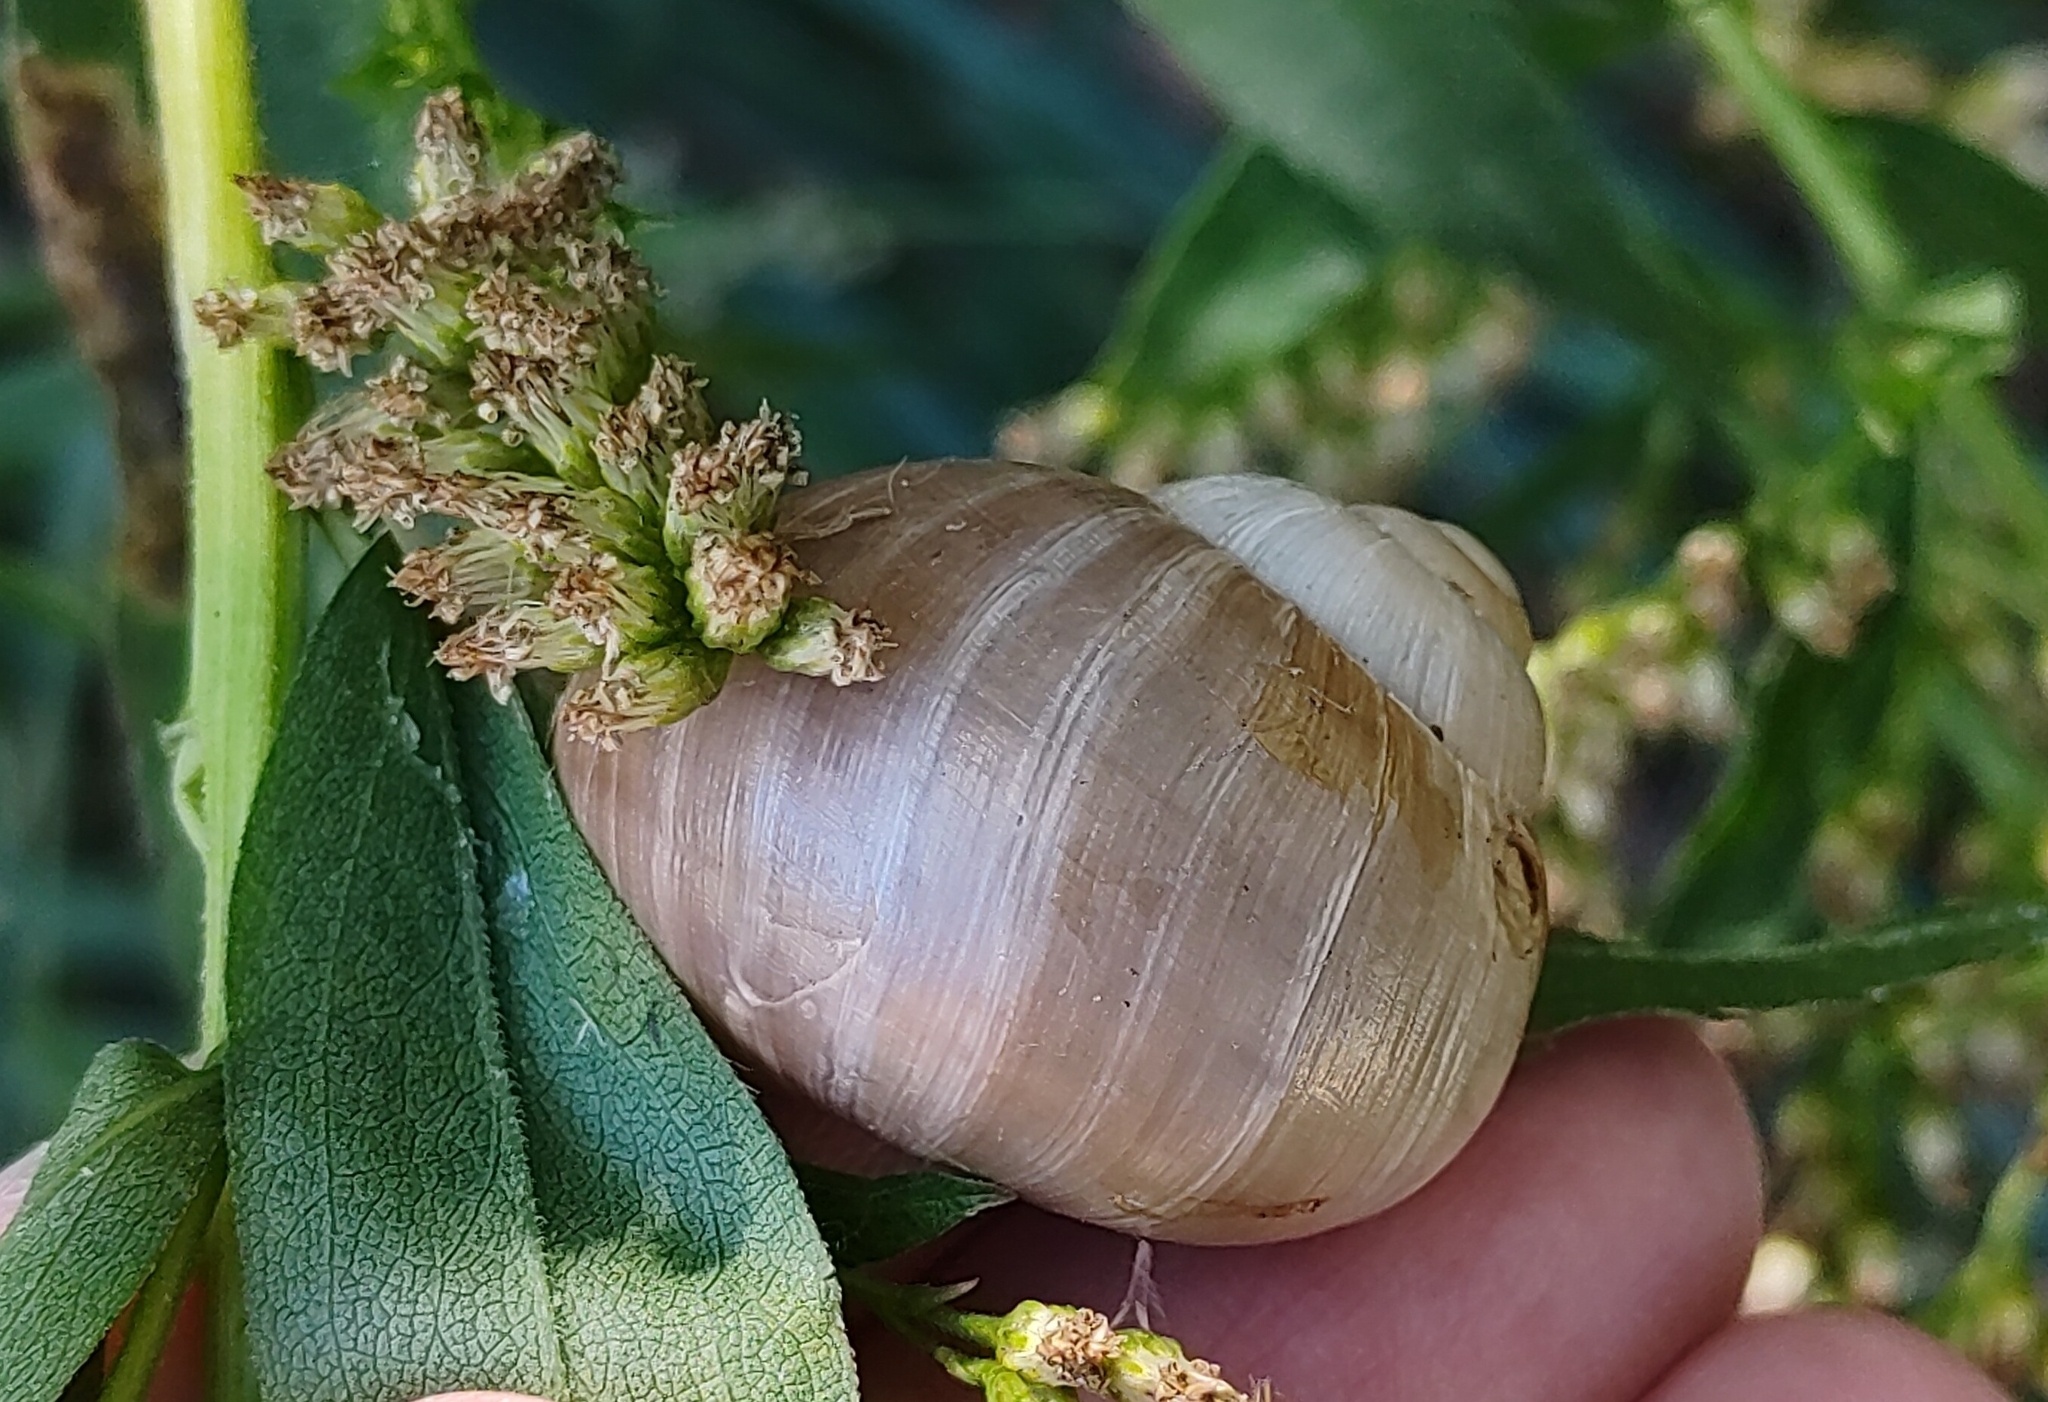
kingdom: Animalia
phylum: Mollusca
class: Gastropoda
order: Stylommatophora
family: Helicidae
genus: Helix
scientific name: Helix lutescens
